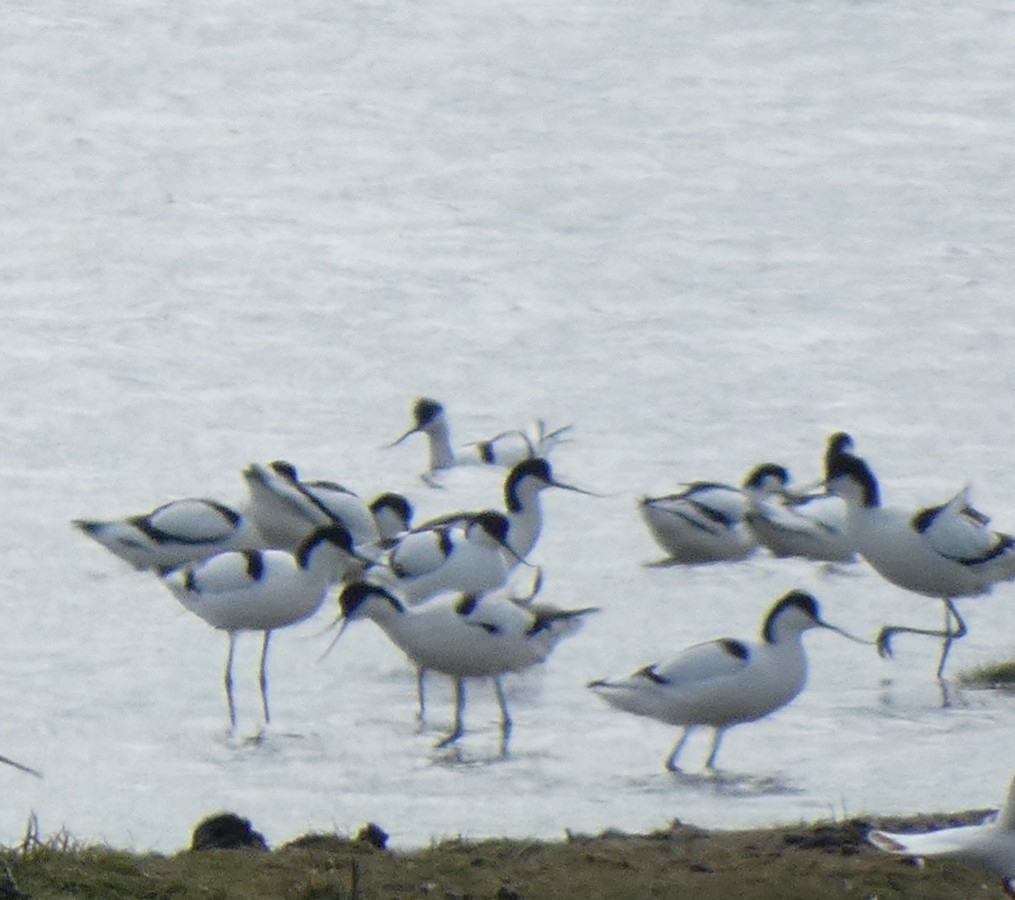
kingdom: Animalia
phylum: Chordata
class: Aves
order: Charadriiformes
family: Recurvirostridae
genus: Recurvirostra
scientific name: Recurvirostra avosetta
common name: Pied avocet
